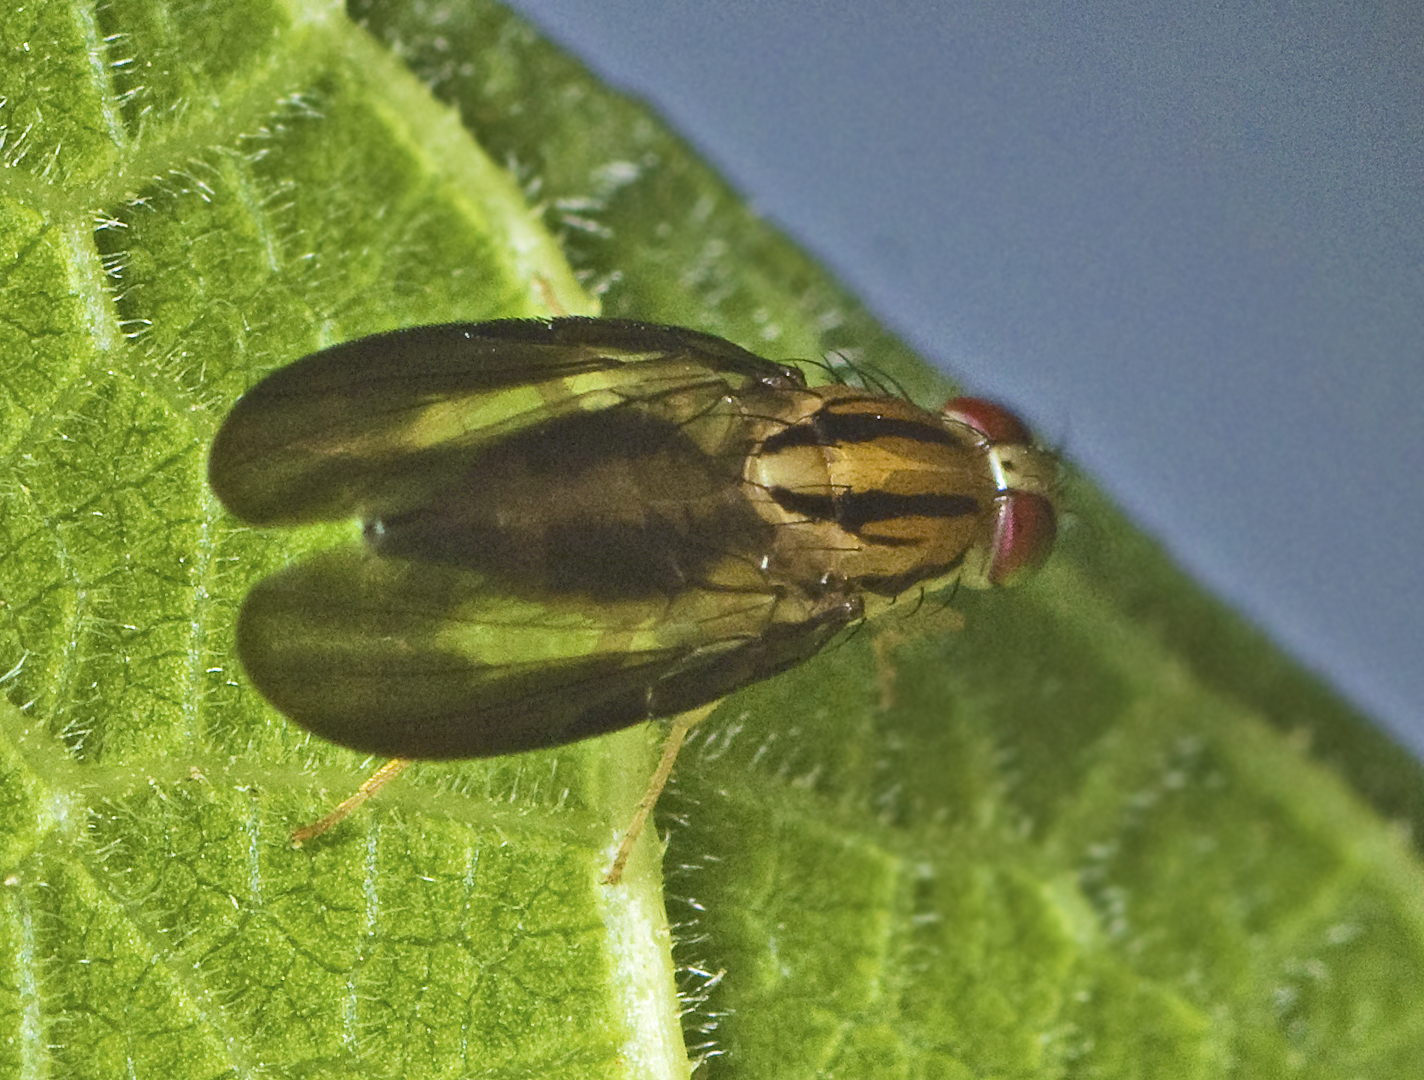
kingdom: Animalia
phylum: Arthropoda
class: Insecta
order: Diptera
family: Tephritidae
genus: Clusiosomina
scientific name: Clusiosomina puncticeps
